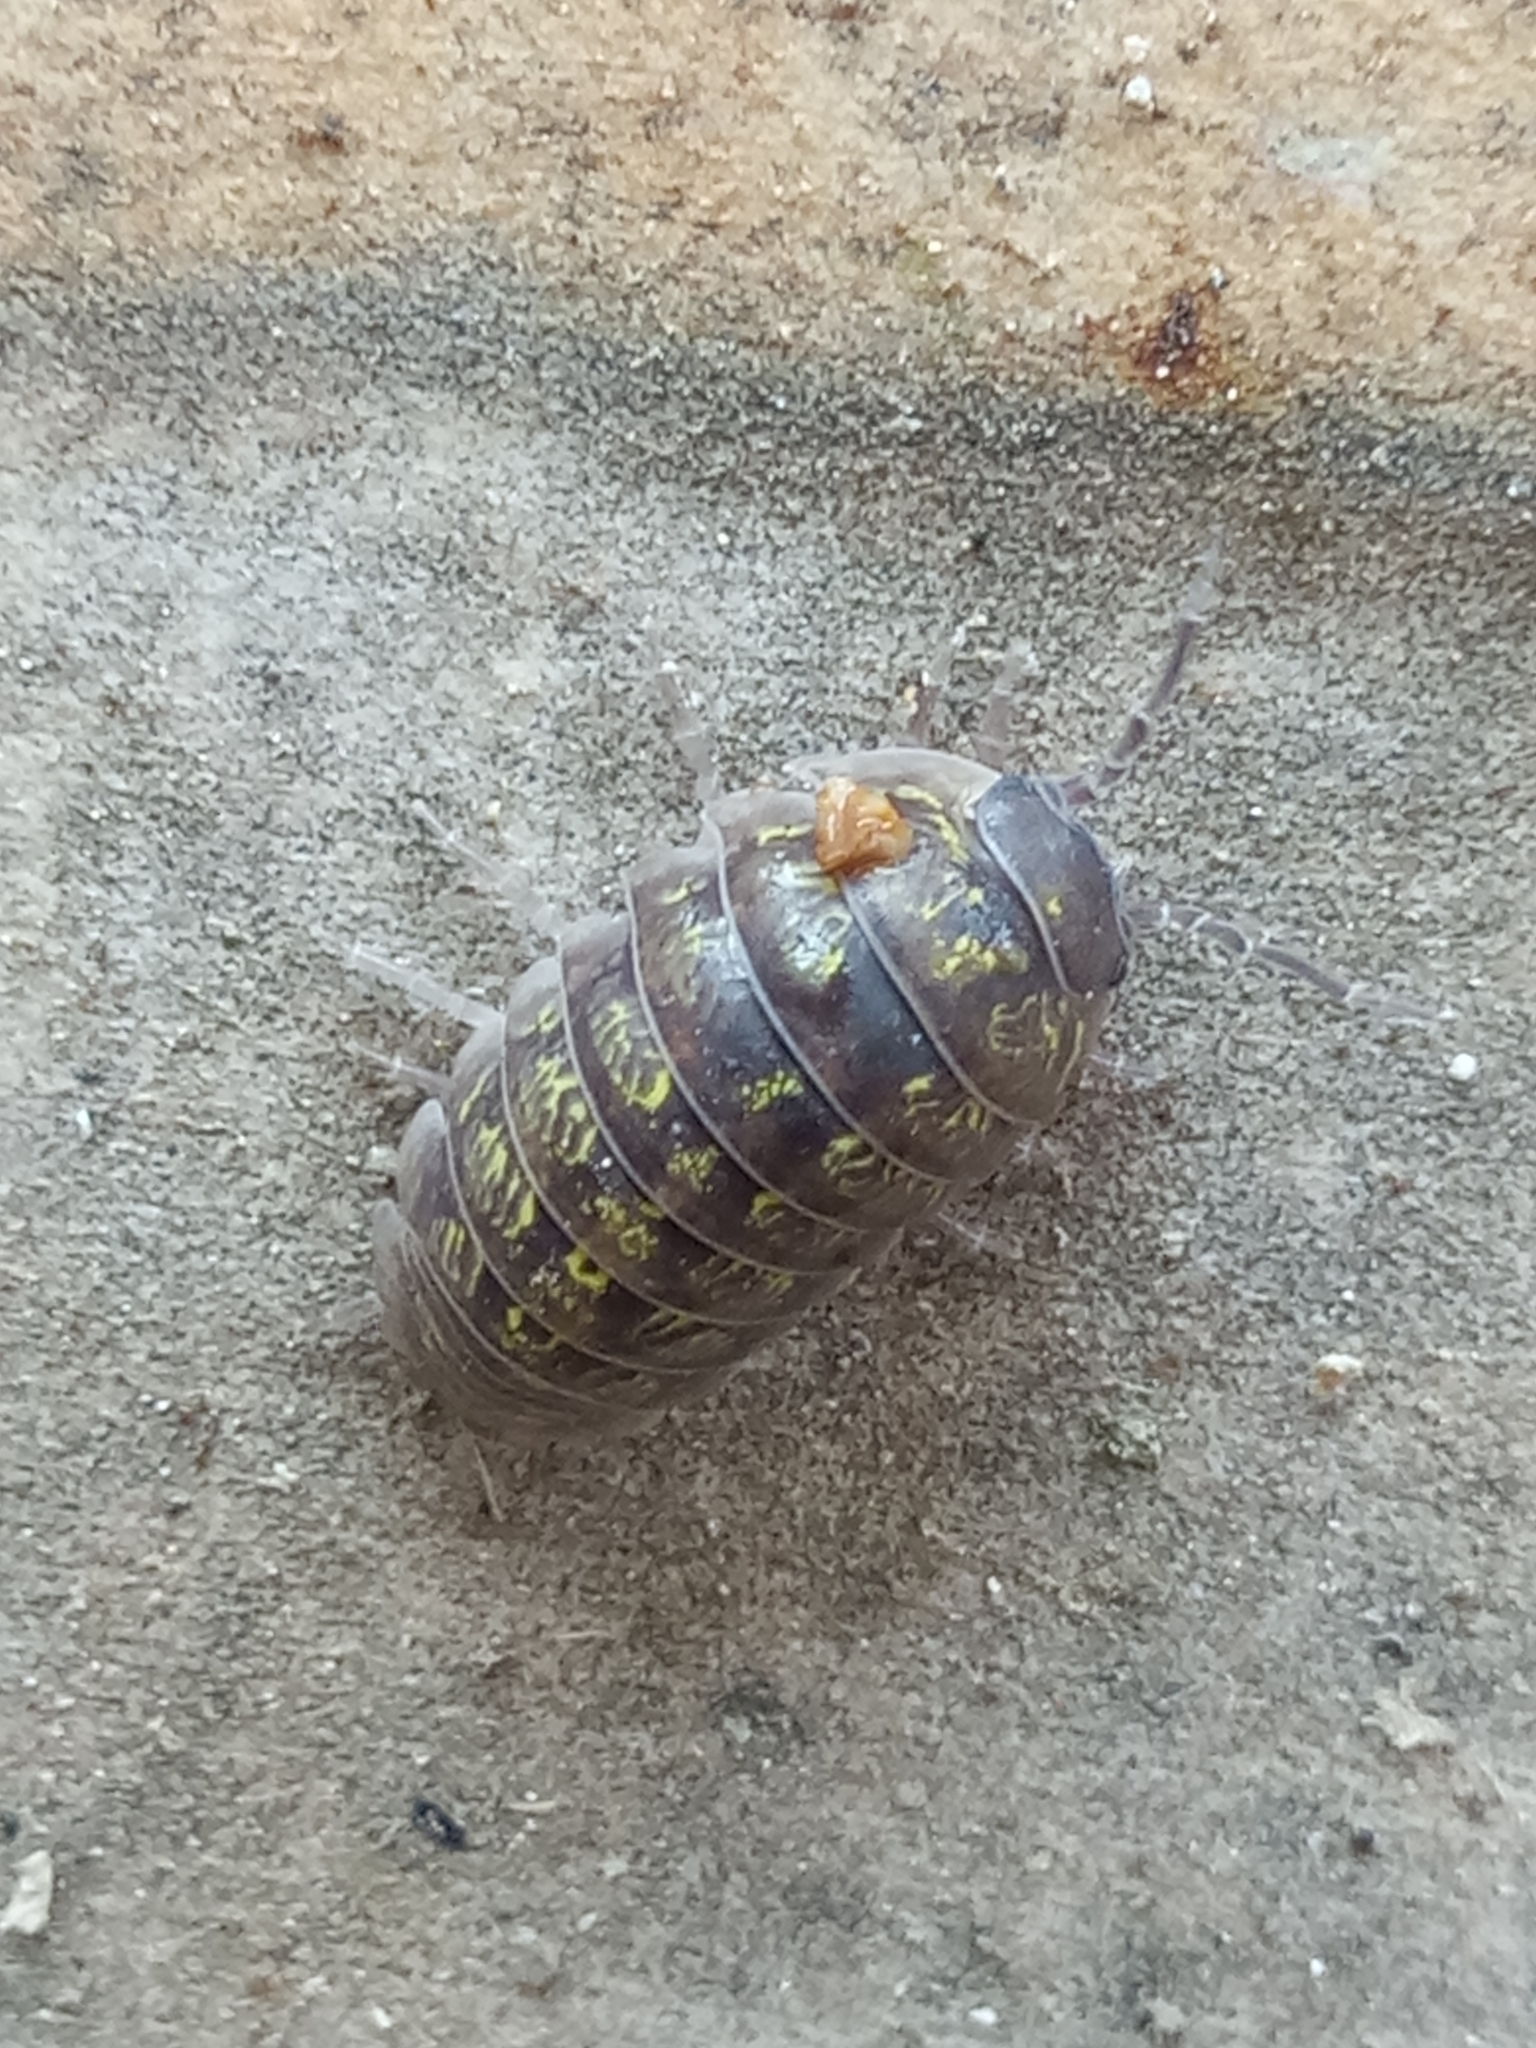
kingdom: Animalia
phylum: Arthropoda
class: Malacostraca
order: Isopoda
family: Armadillidiidae
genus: Armadillidium
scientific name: Armadillidium vulgare
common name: Common pill woodlouse
